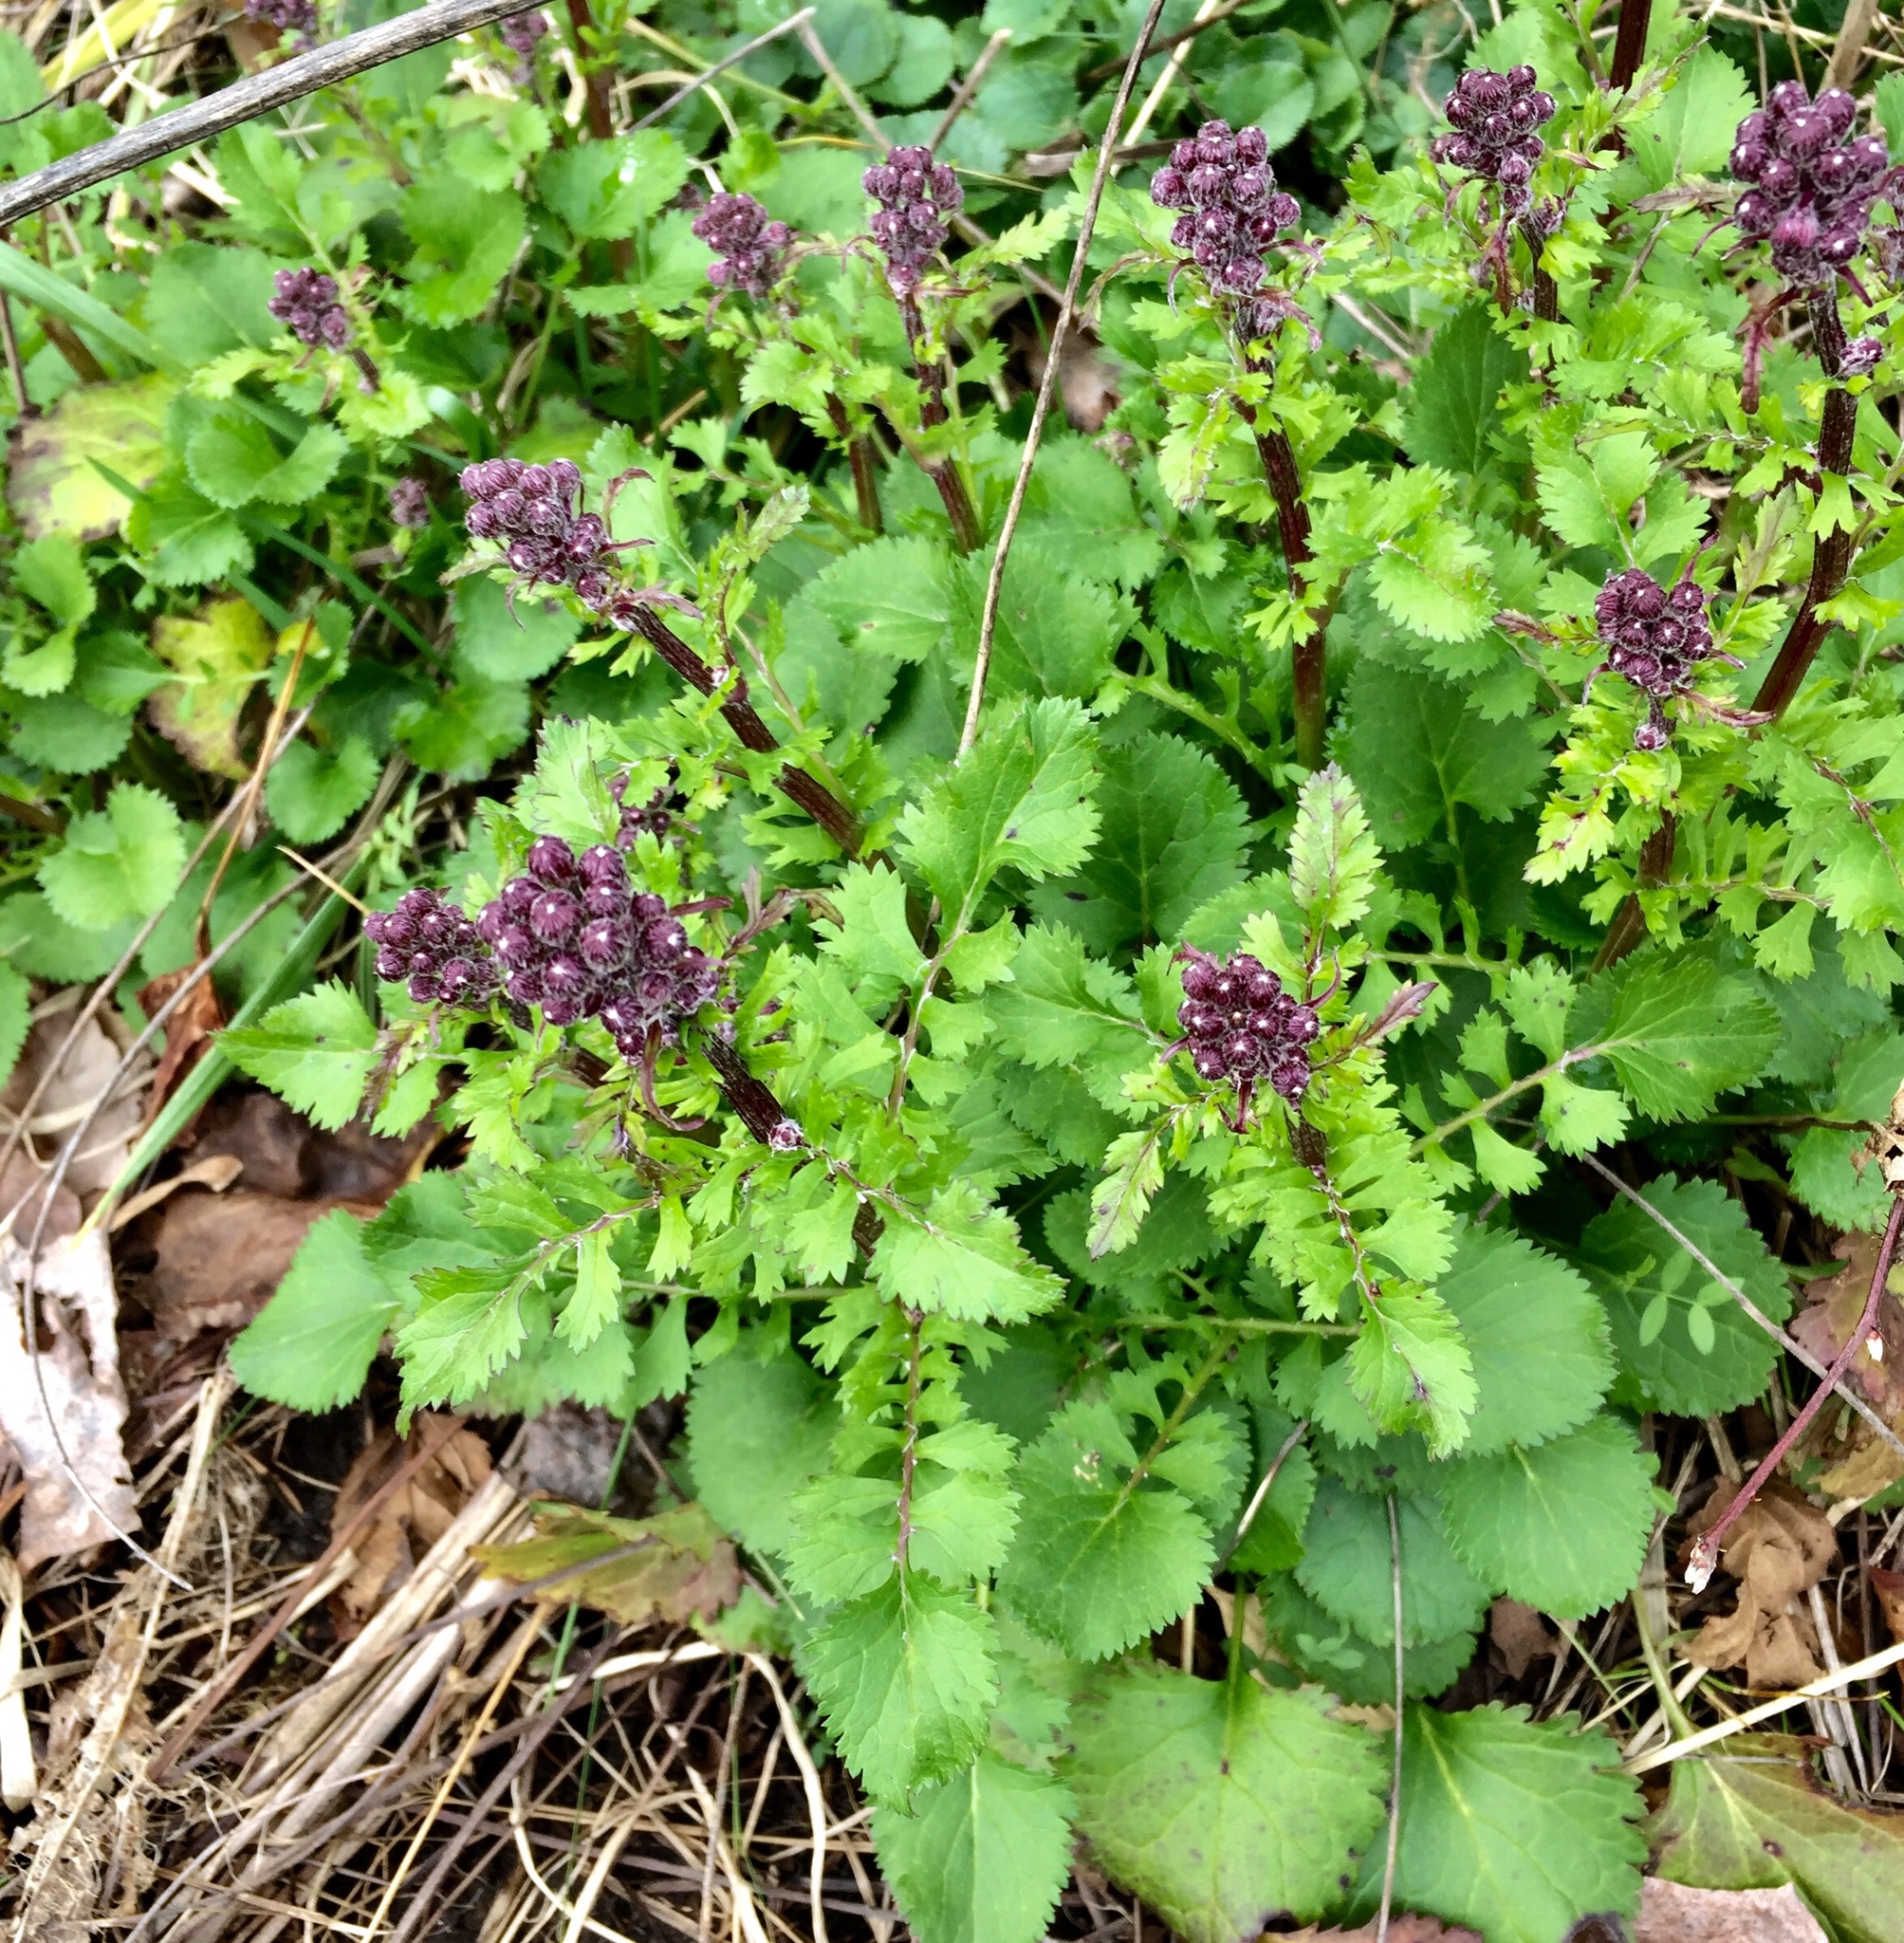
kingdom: Plantae
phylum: Tracheophyta
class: Magnoliopsida
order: Asterales
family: Asteraceae
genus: Packera
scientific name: Packera aurea
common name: Golden groundsel
